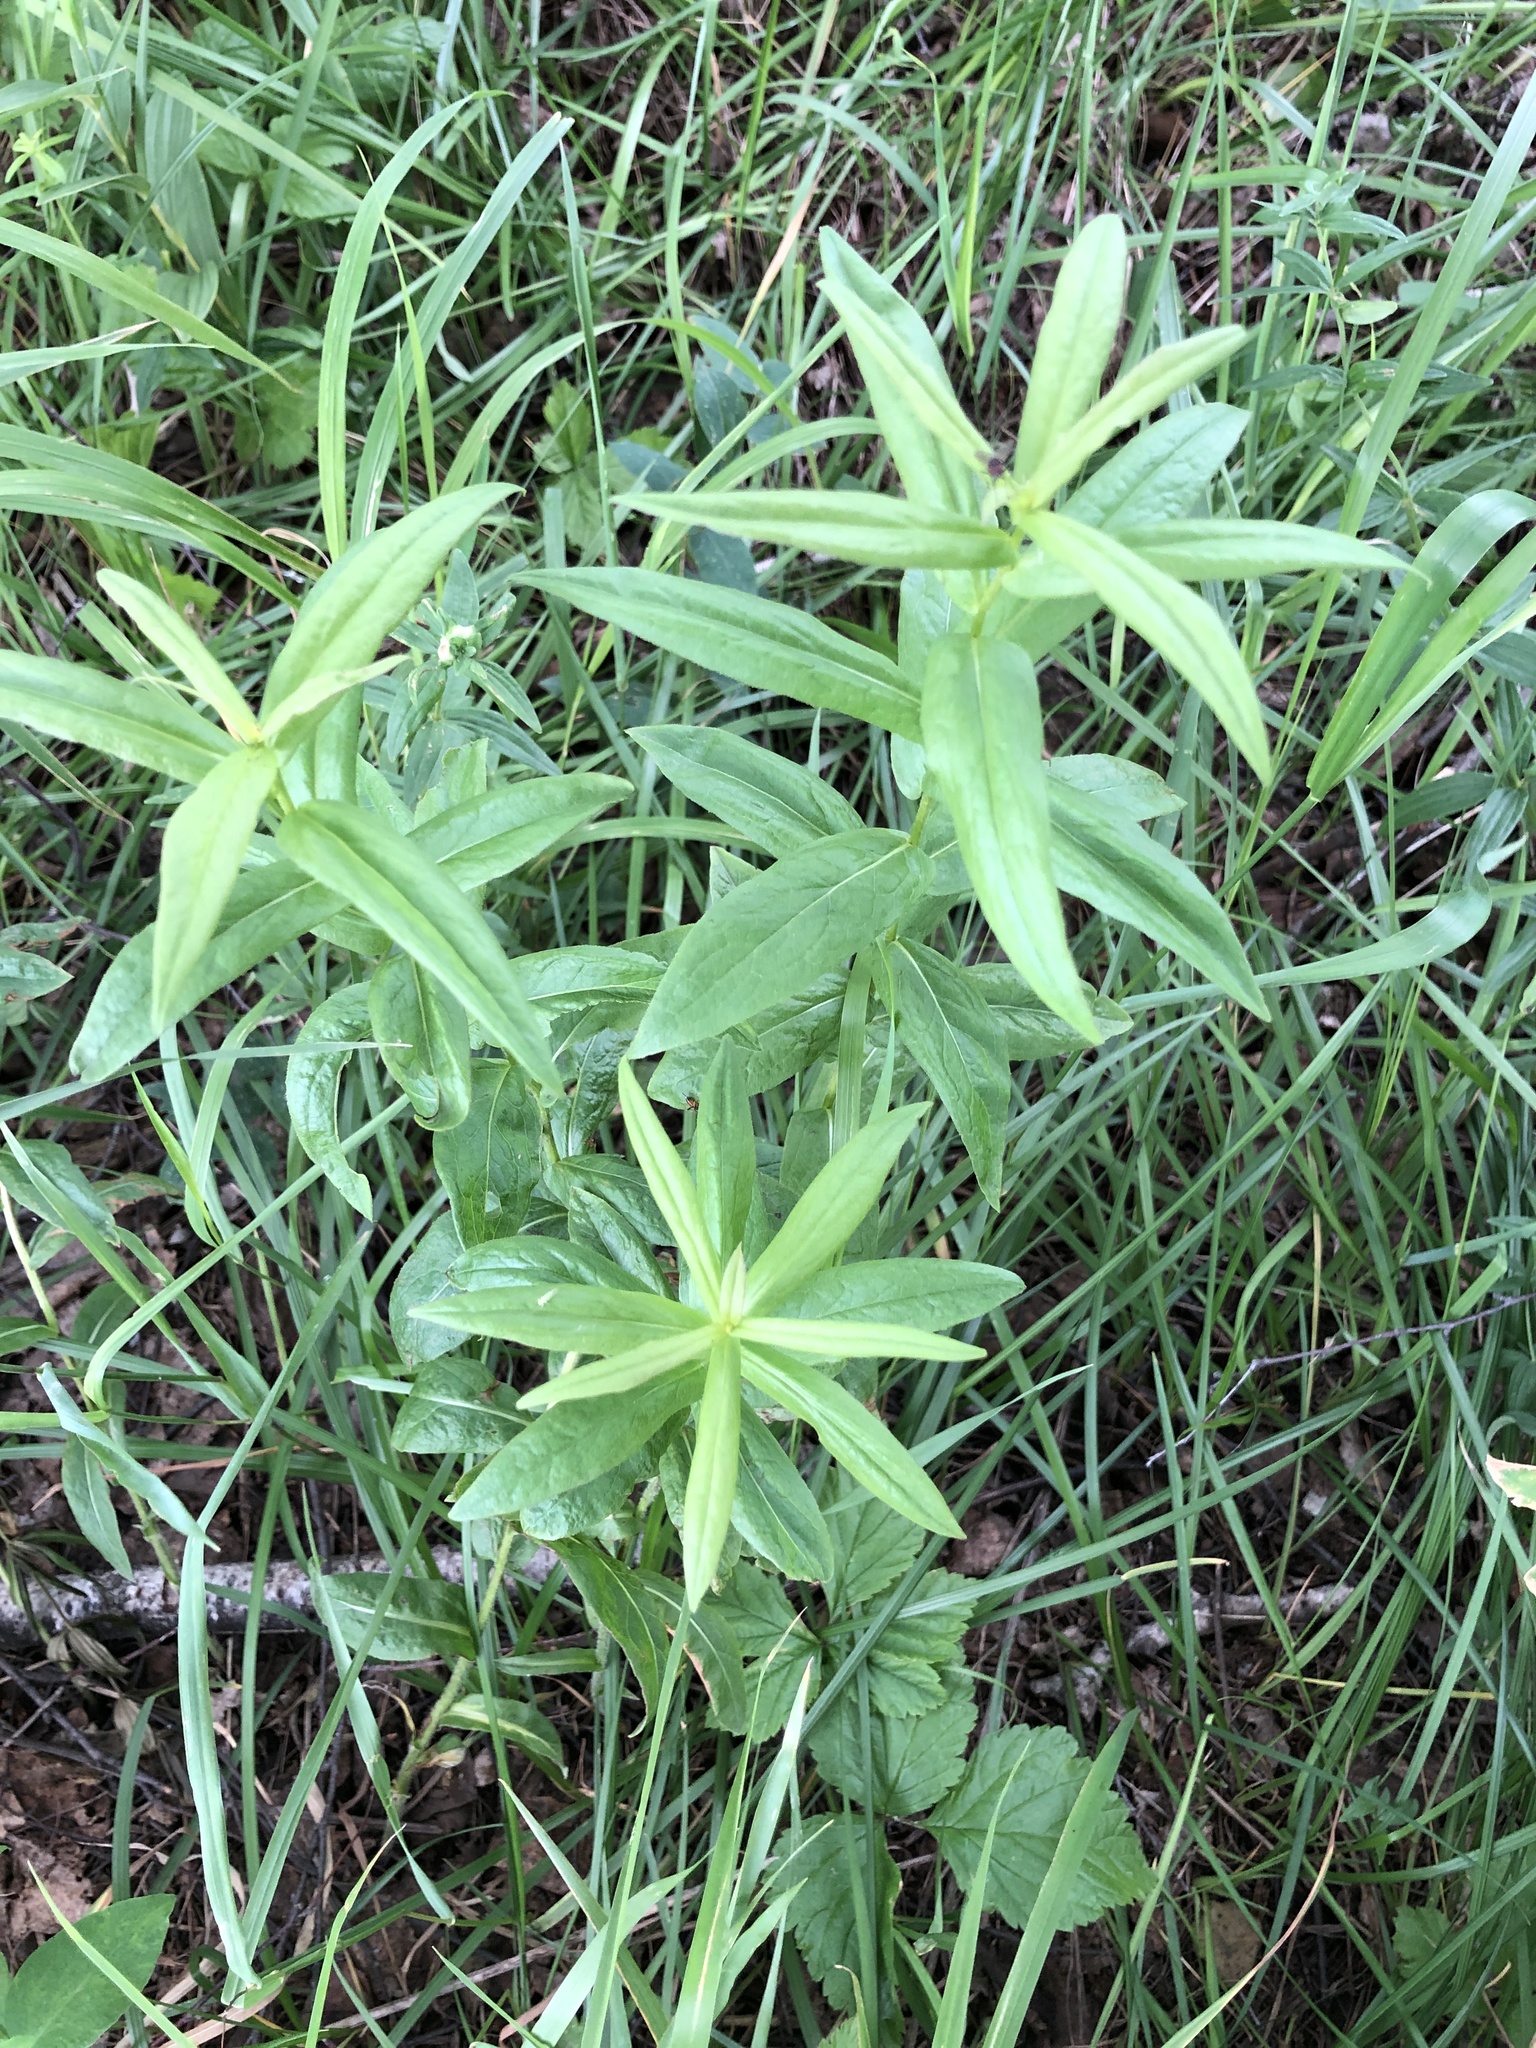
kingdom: Plantae
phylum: Tracheophyta
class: Magnoliopsida
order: Asterales
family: Asteraceae
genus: Pentanema
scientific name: Pentanema salicinum
